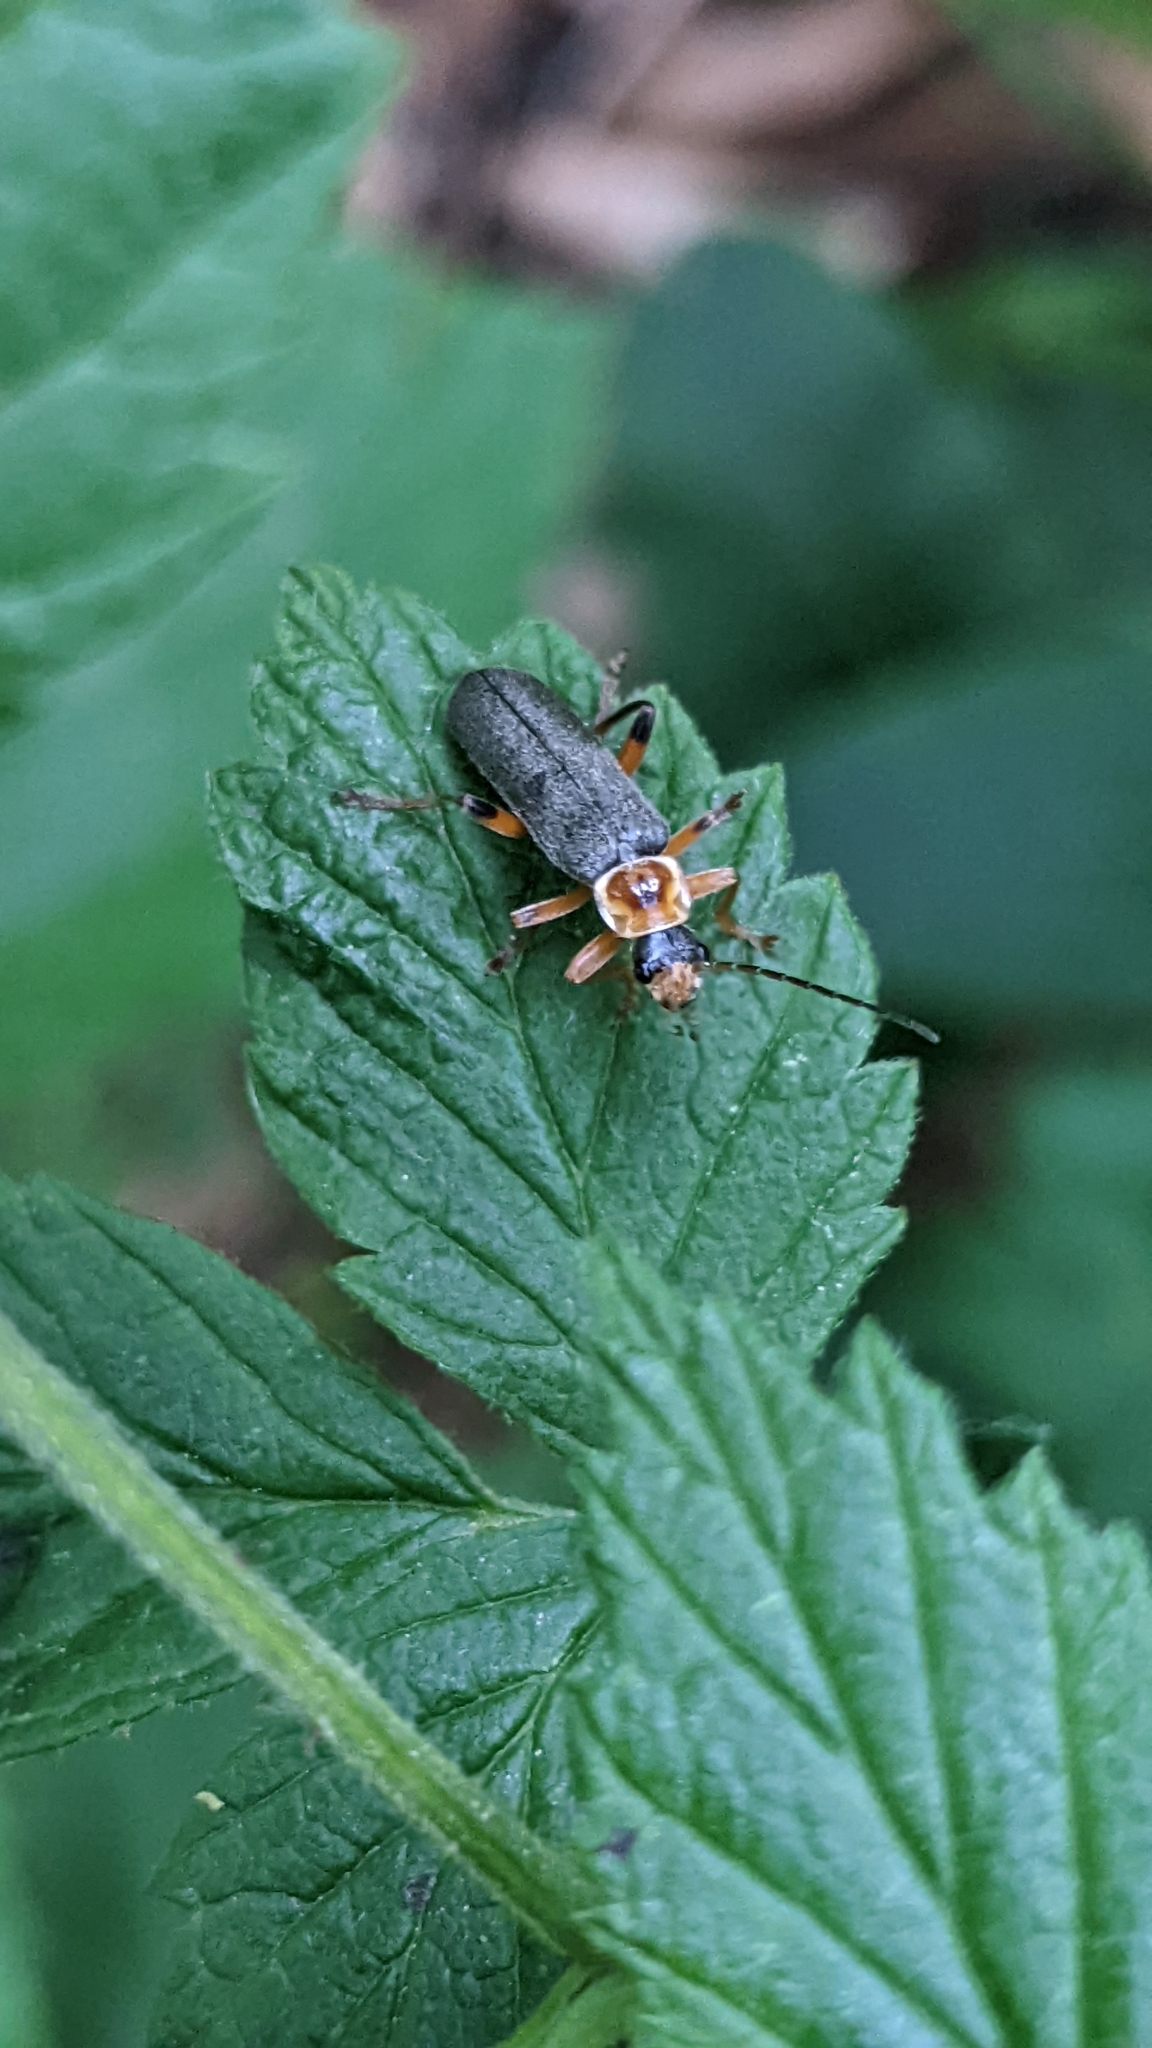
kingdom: Animalia
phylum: Arthropoda
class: Insecta
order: Coleoptera
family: Cantharidae
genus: Cantharis
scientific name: Cantharis nigricans
